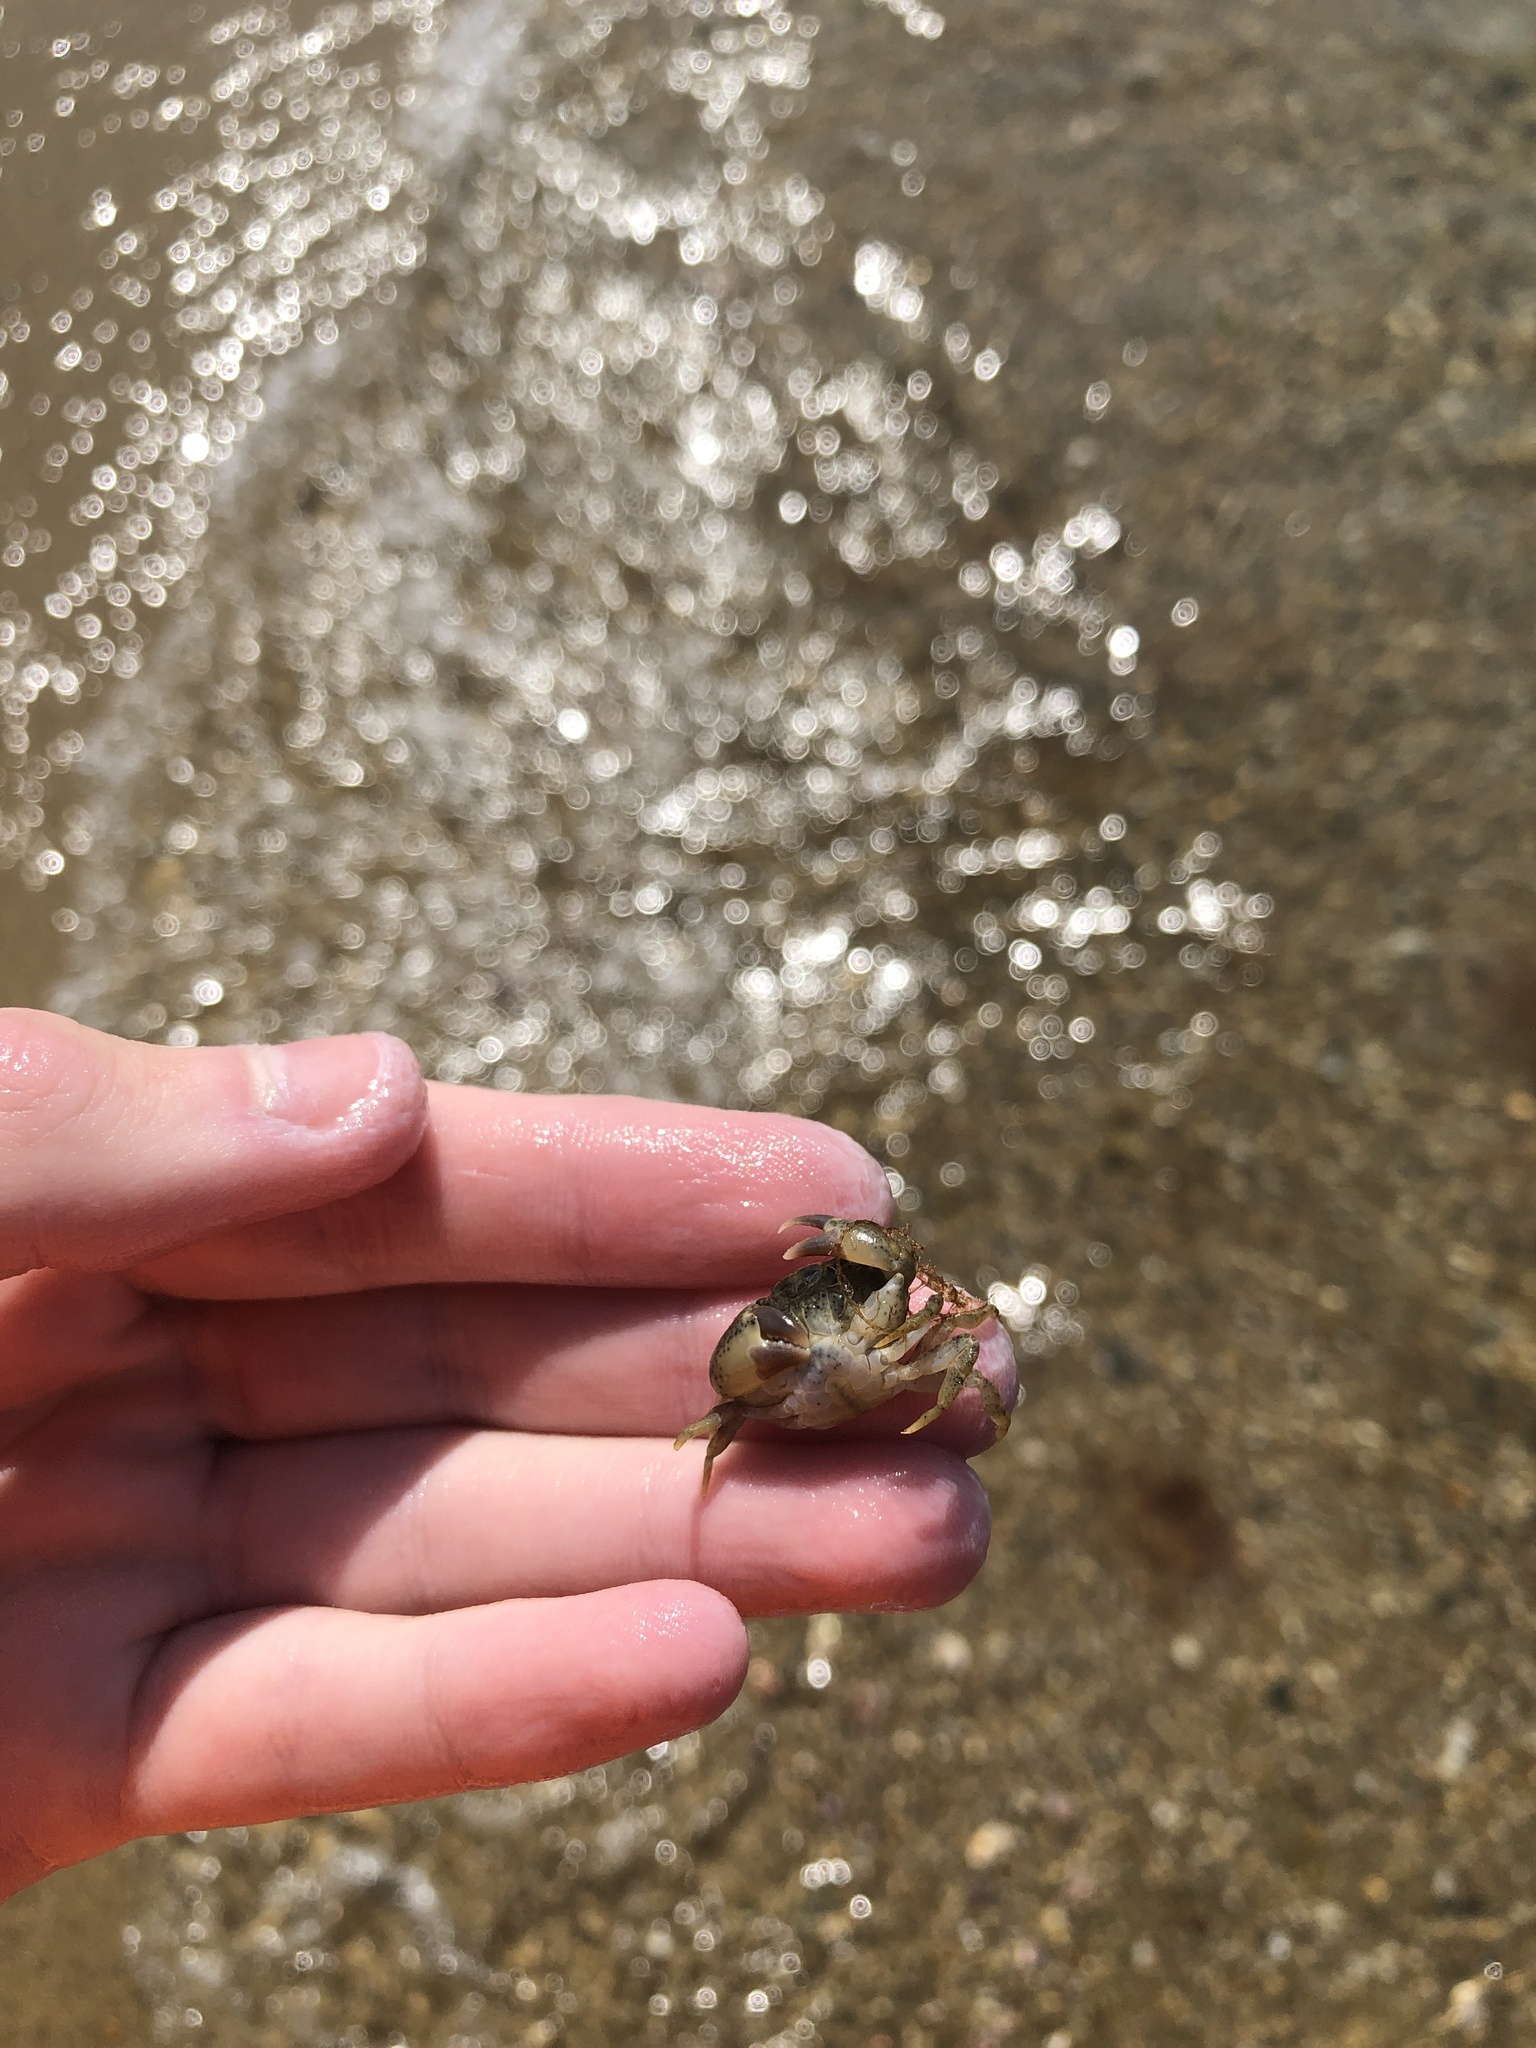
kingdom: Animalia
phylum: Arthropoda
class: Malacostraca
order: Decapoda
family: Panopeidae
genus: Dyspanopeus
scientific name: Dyspanopeus sayi
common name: Say mud crab
